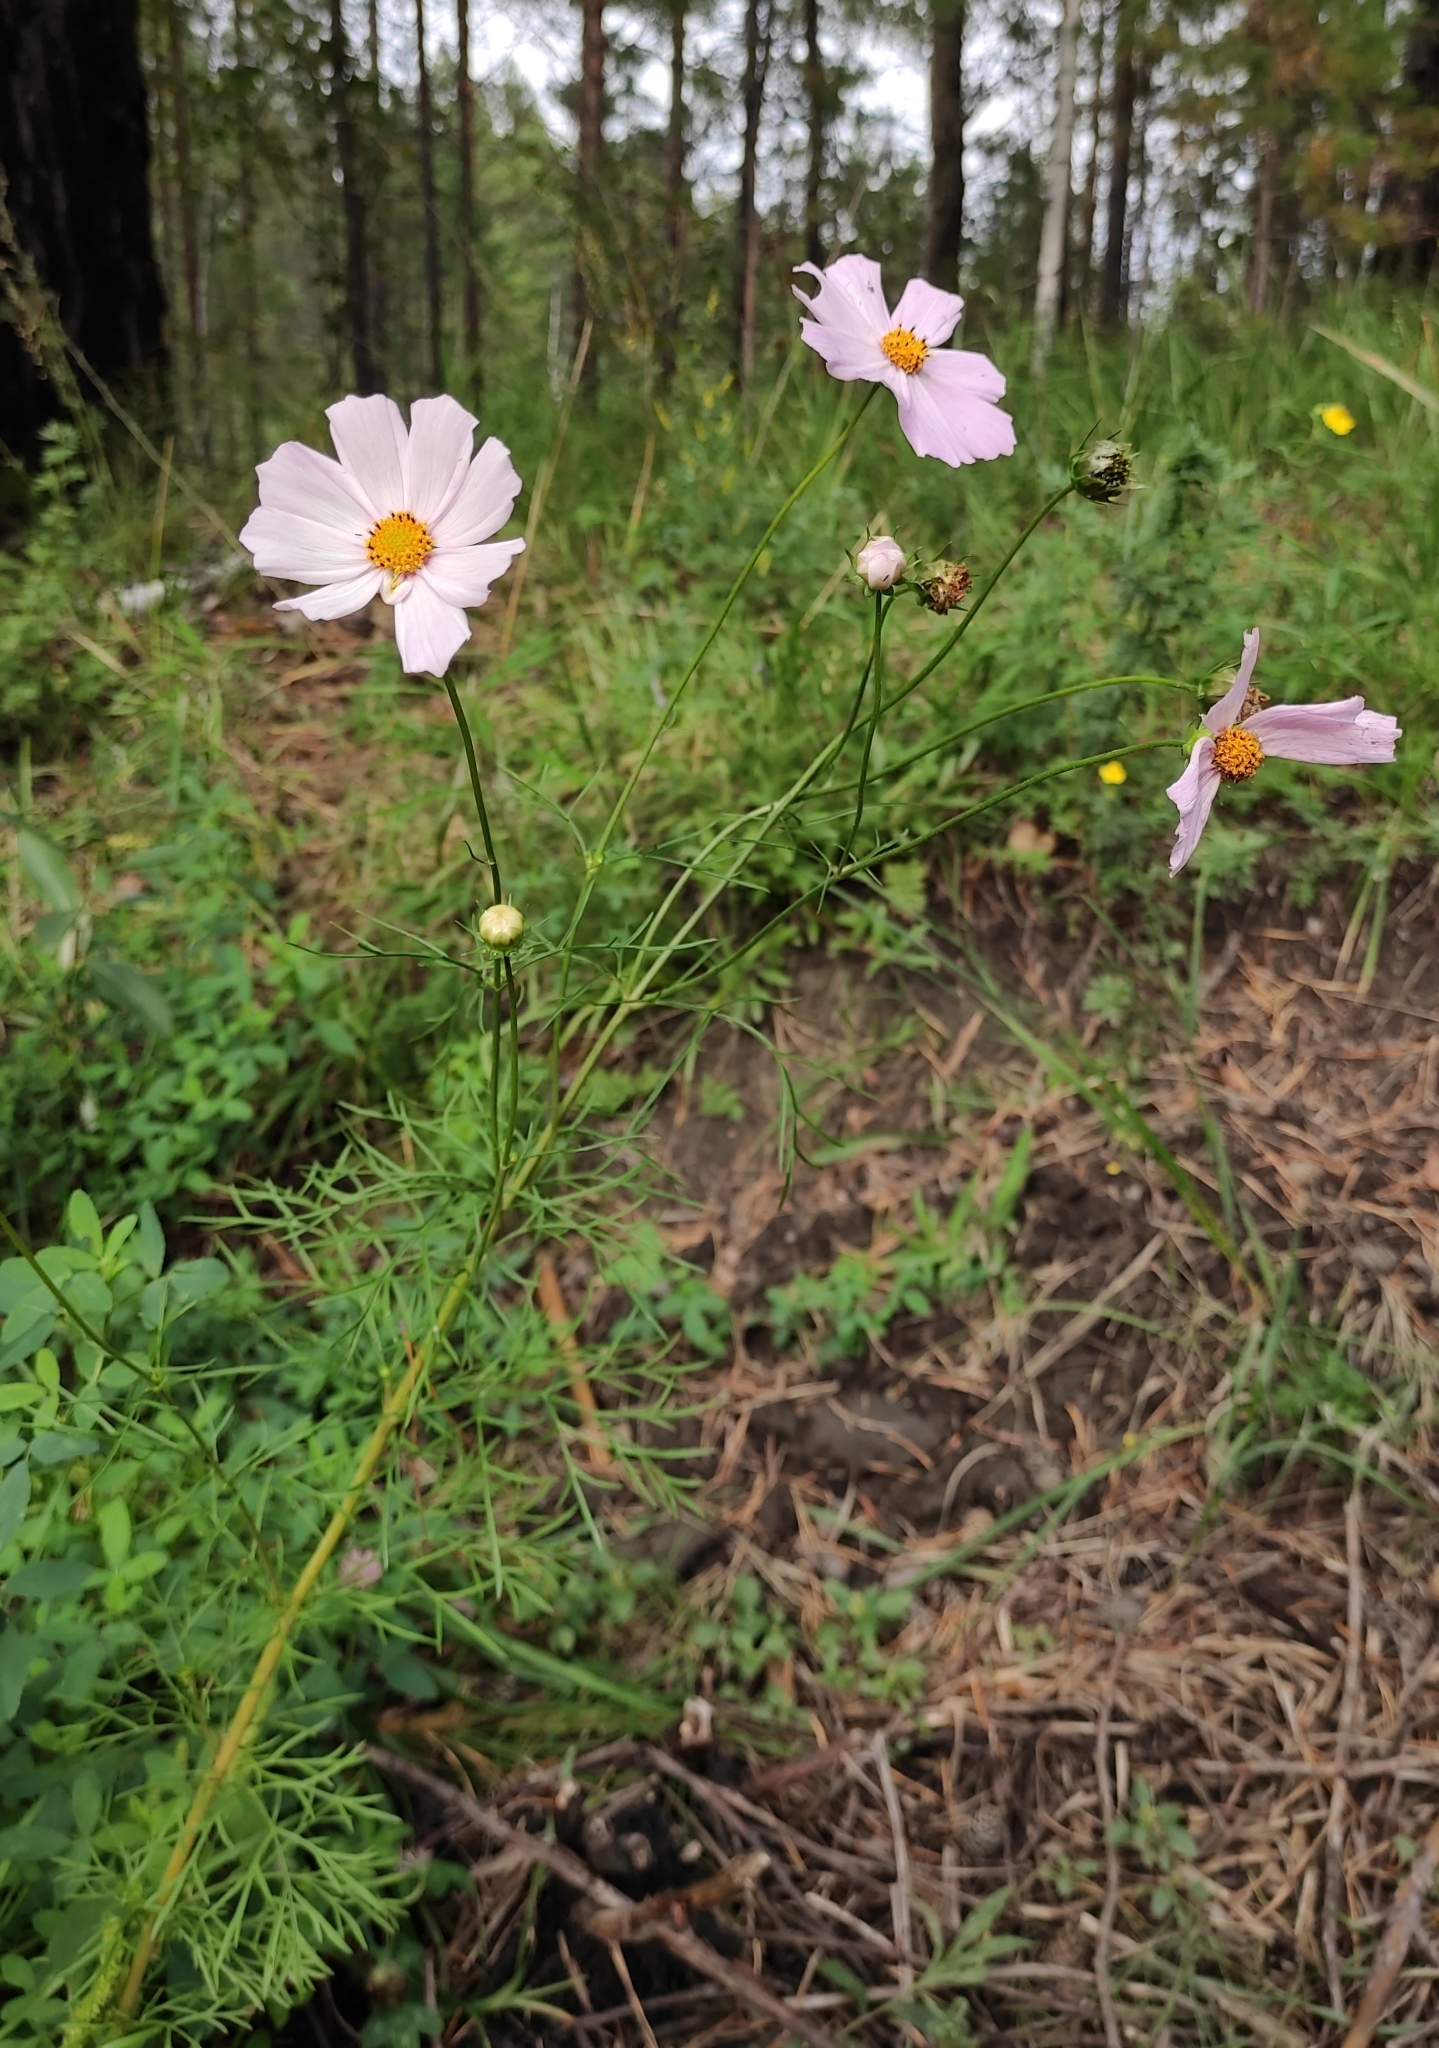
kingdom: Plantae
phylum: Tracheophyta
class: Magnoliopsida
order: Asterales
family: Asteraceae
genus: Cosmos
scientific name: Cosmos bipinnatus
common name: Garden cosmos
